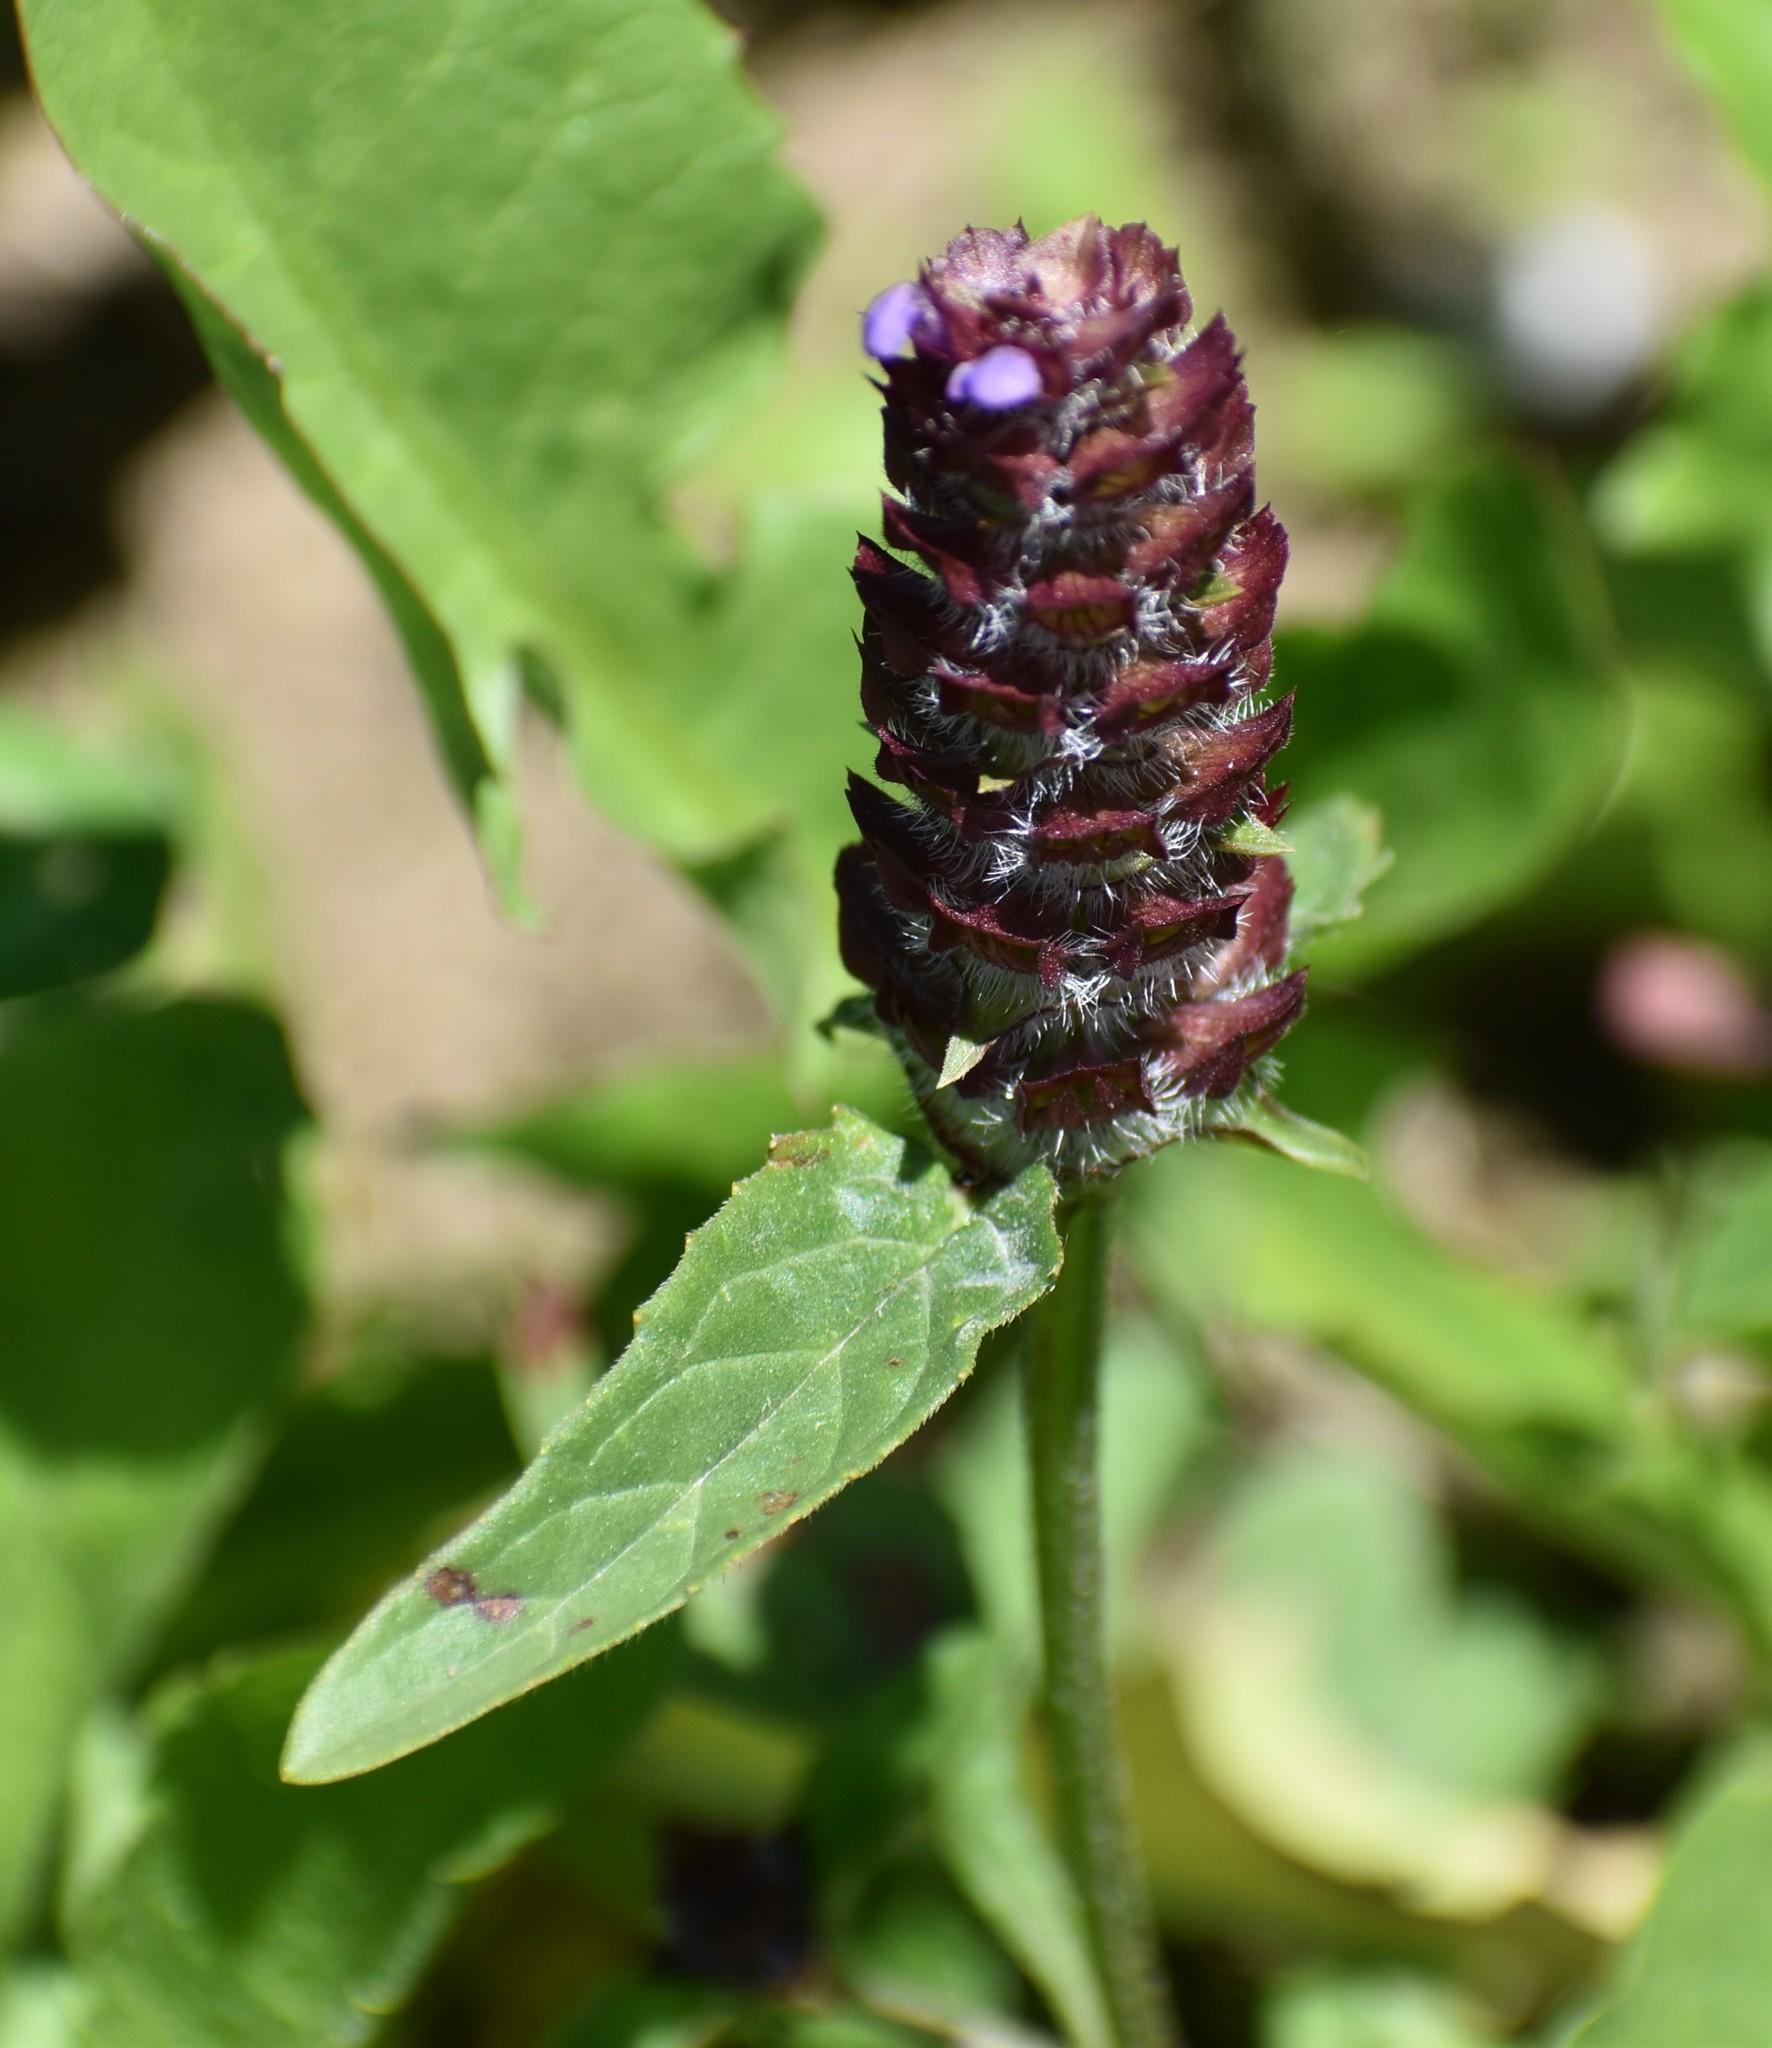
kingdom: Plantae
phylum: Tracheophyta
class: Magnoliopsida
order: Lamiales
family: Lamiaceae
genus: Prunella
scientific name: Prunella vulgaris
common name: Heal-all
